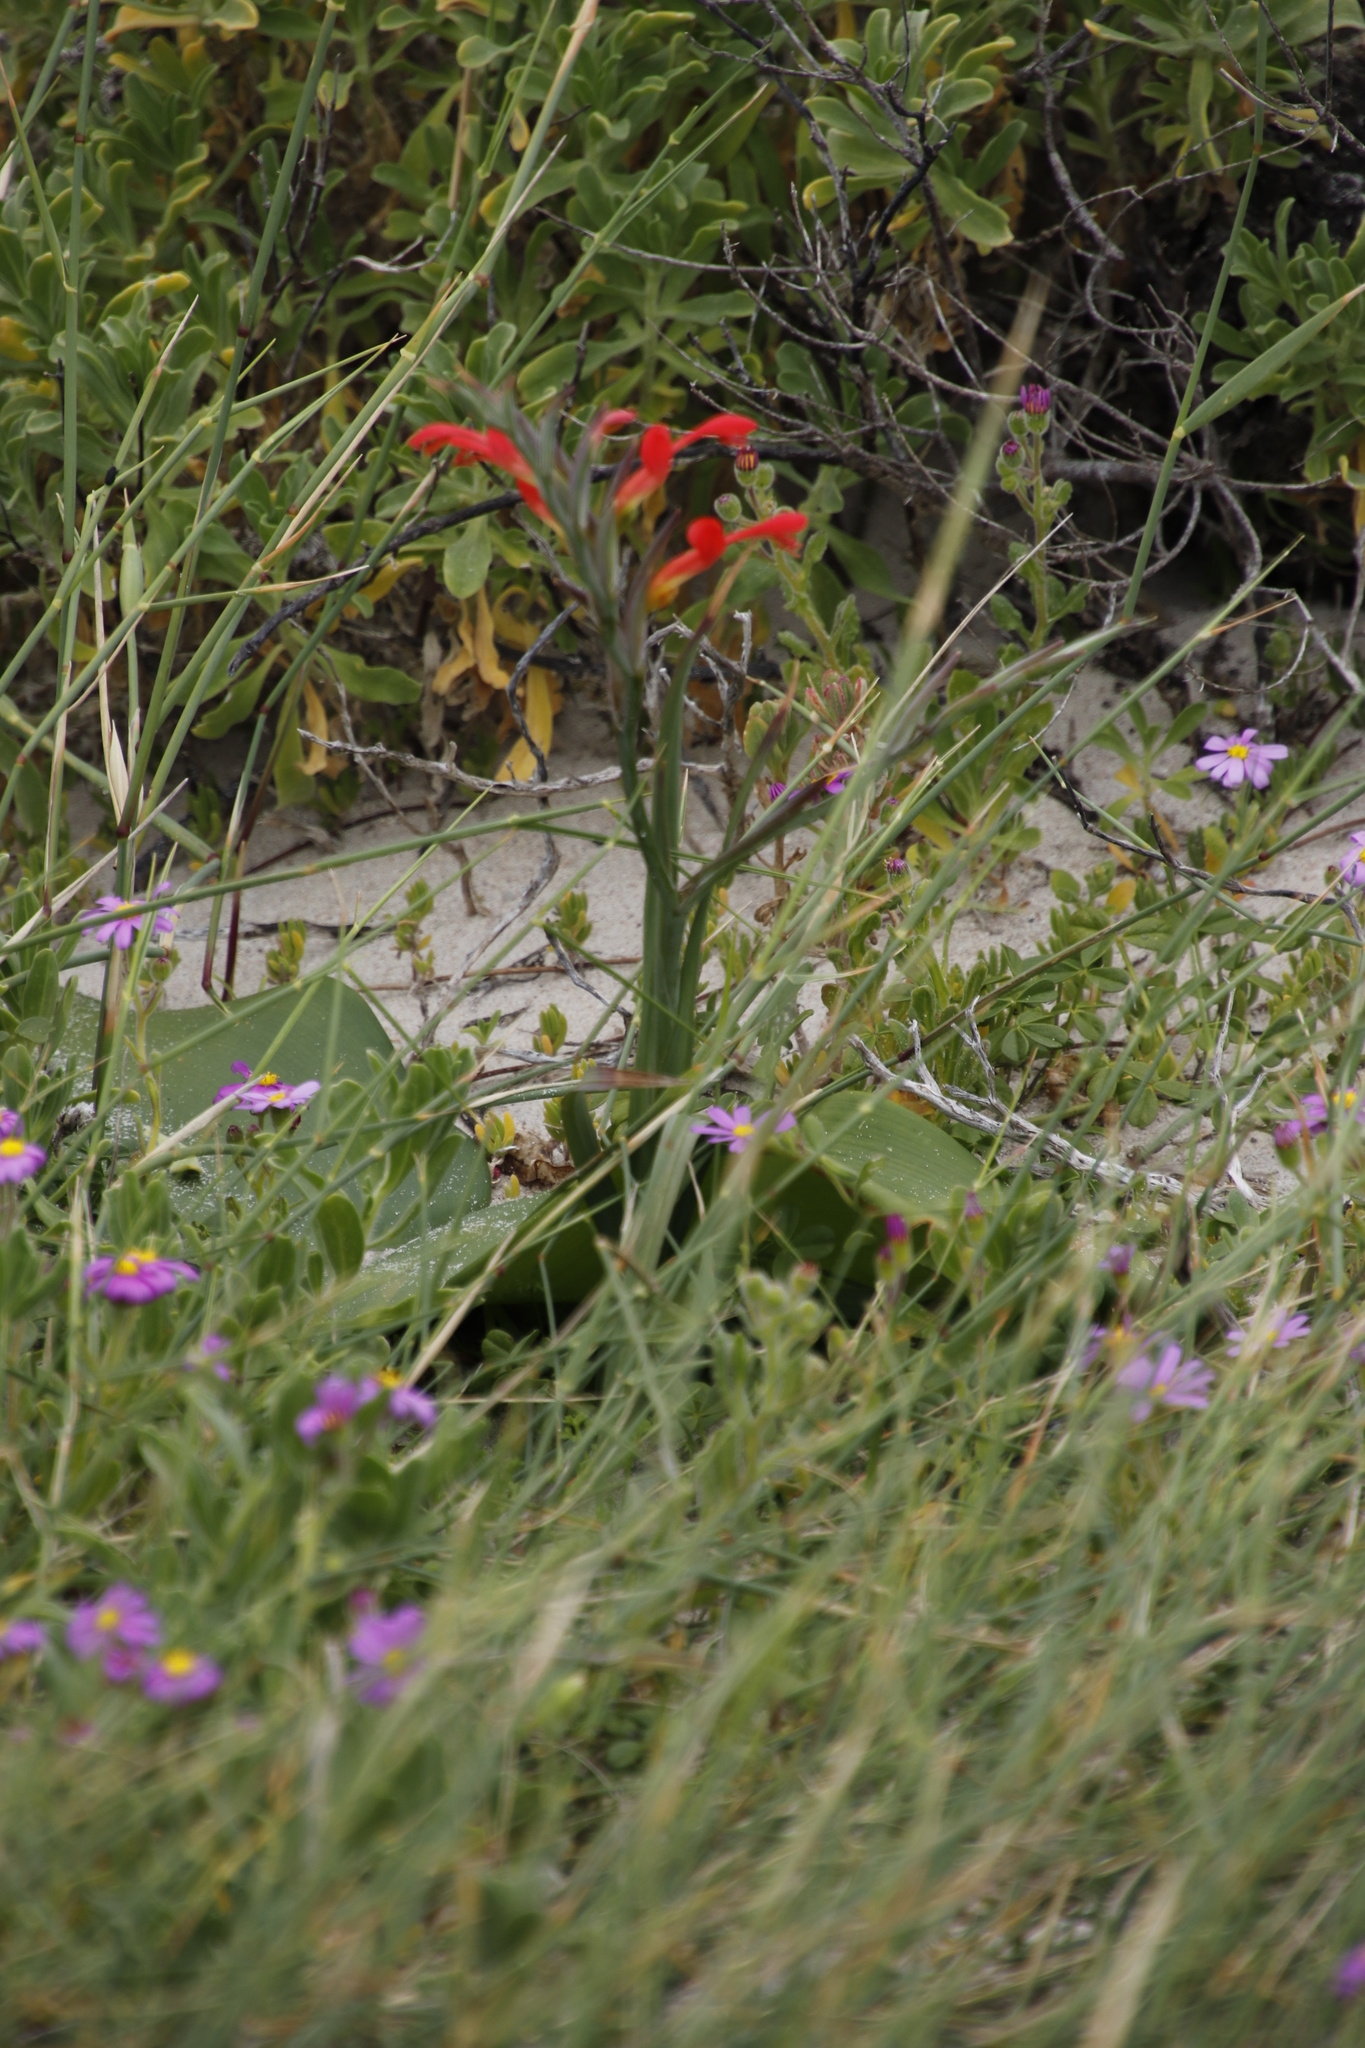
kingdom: Plantae
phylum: Tracheophyta
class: Liliopsida
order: Asparagales
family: Iridaceae
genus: Gladiolus
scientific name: Gladiolus cunonius
